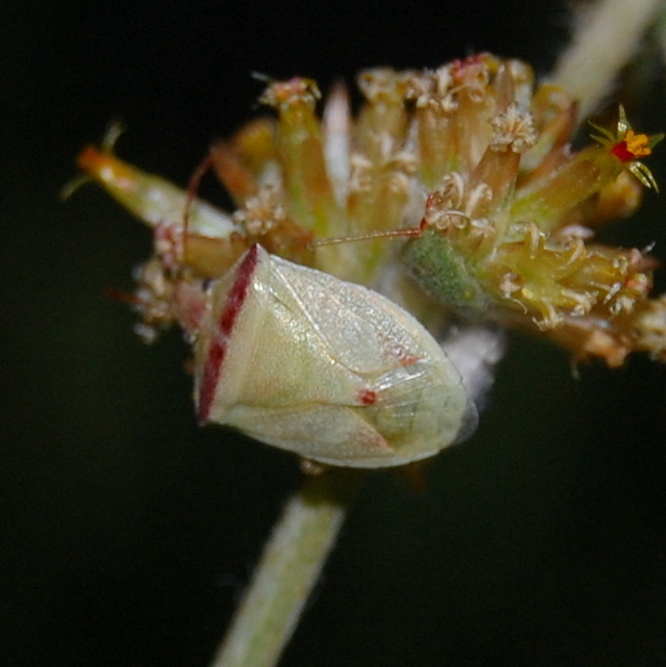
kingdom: Animalia
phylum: Arthropoda
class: Insecta
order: Hemiptera
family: Pentatomidae
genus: Thyanta
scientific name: Thyanta humilis
